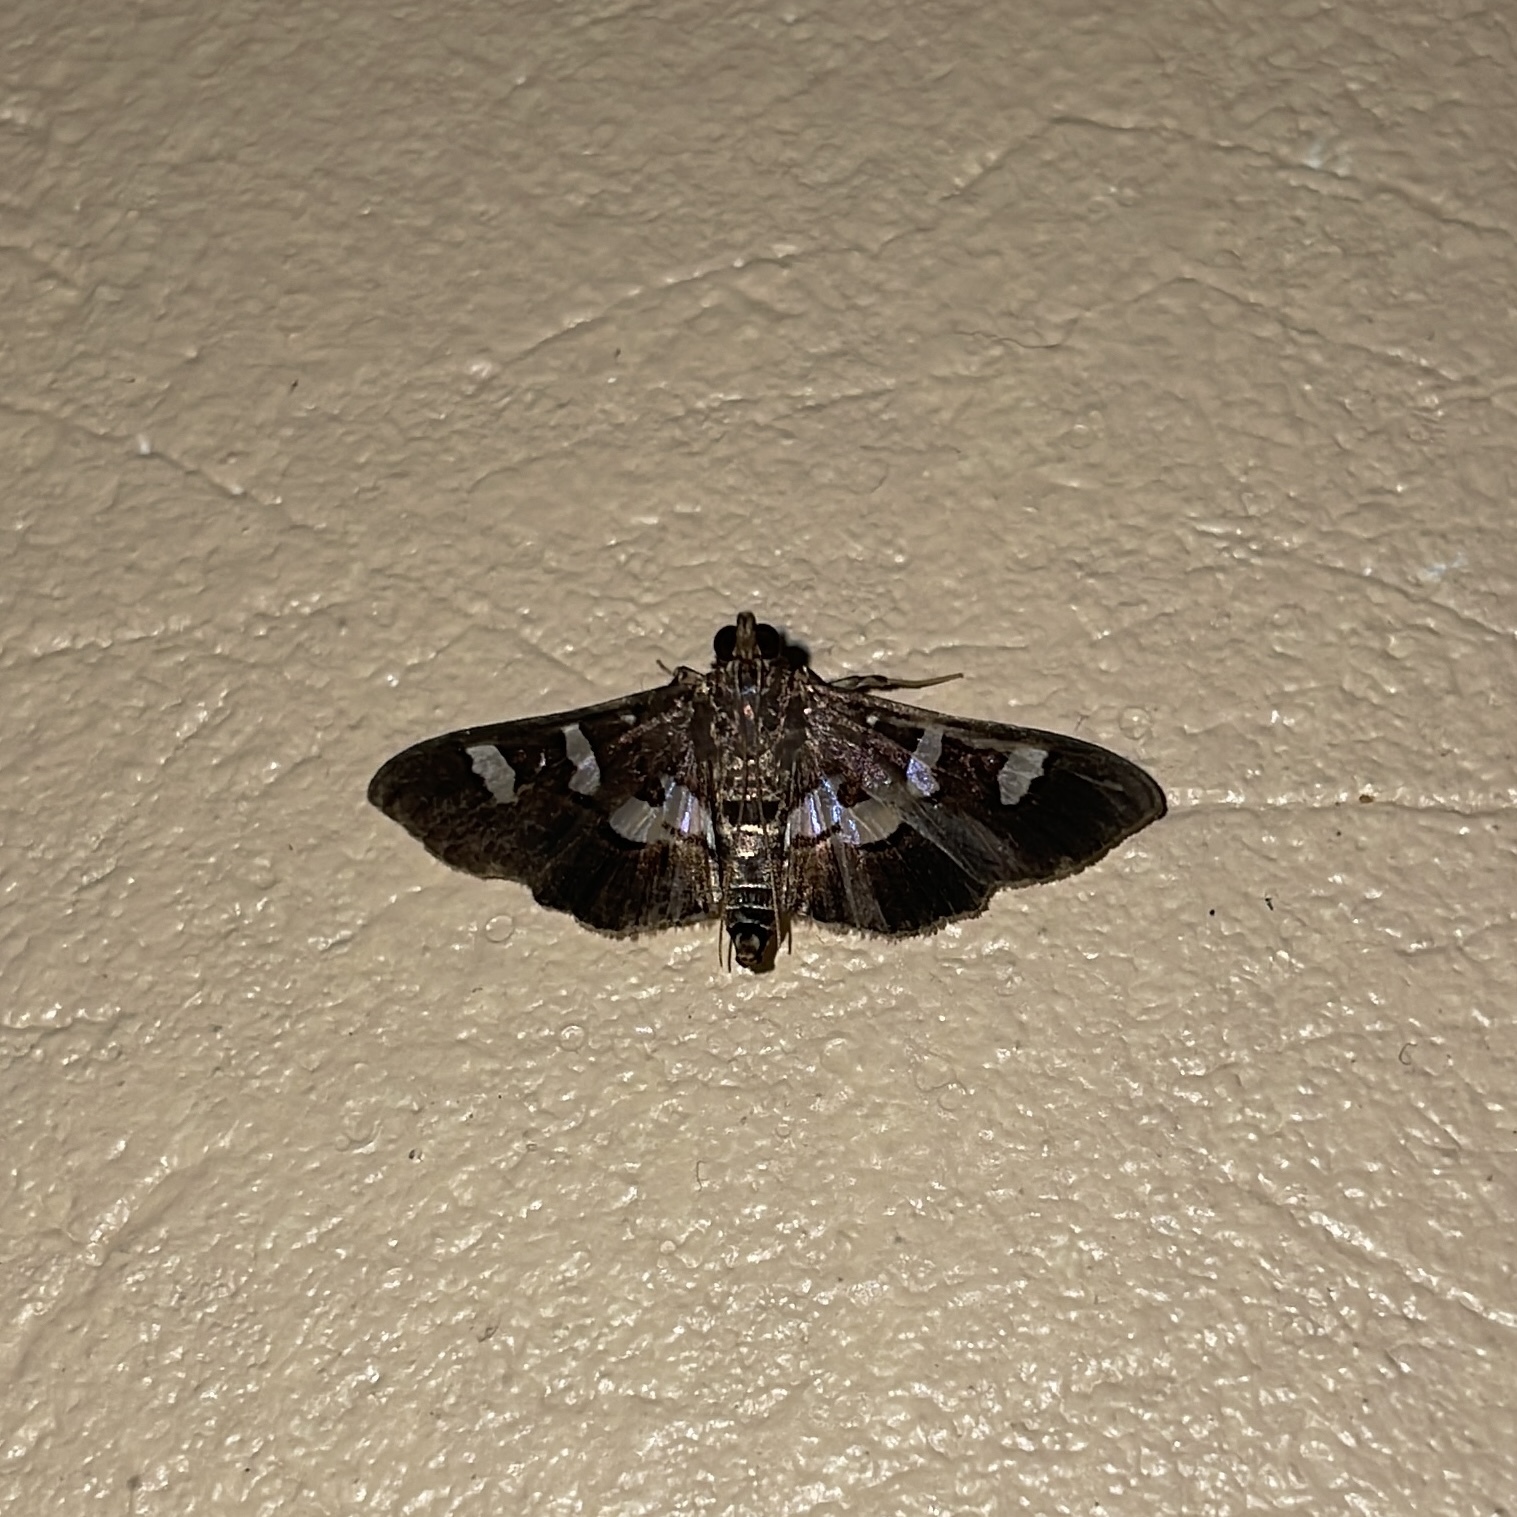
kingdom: Animalia
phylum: Arthropoda
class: Insecta
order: Lepidoptera
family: Crambidae
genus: Desmia
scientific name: Desmia tages
